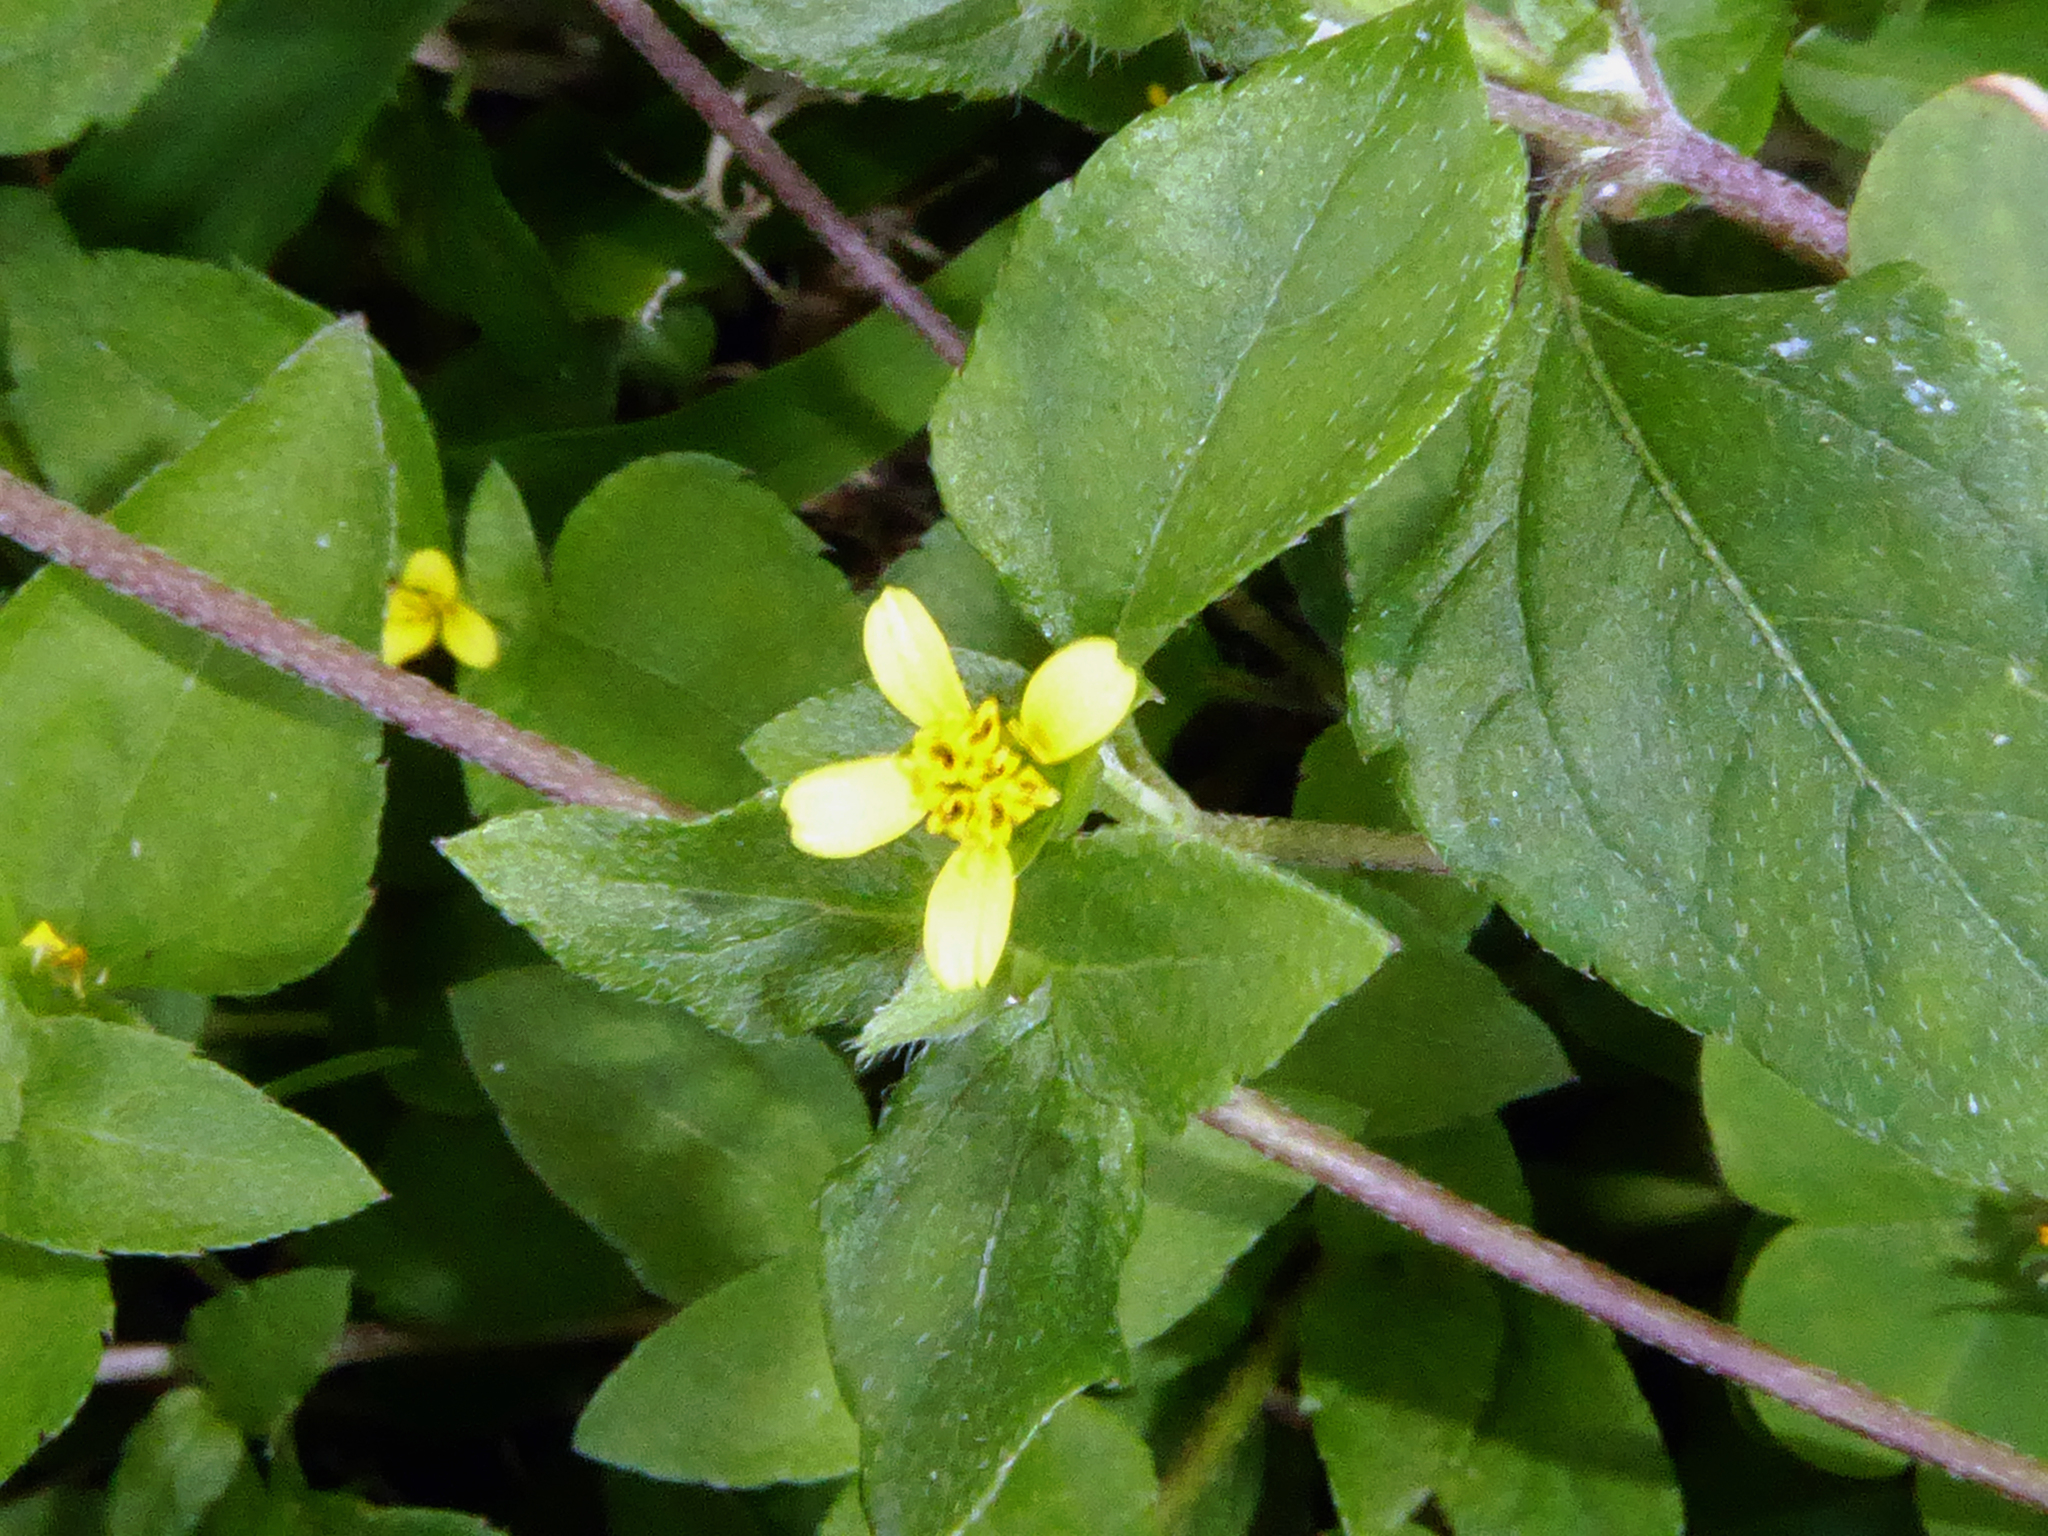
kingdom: Plantae
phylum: Tracheophyta
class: Magnoliopsida
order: Asterales
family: Asteraceae
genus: Calyptocarpus
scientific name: Calyptocarpus vialis
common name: Straggler daisy
